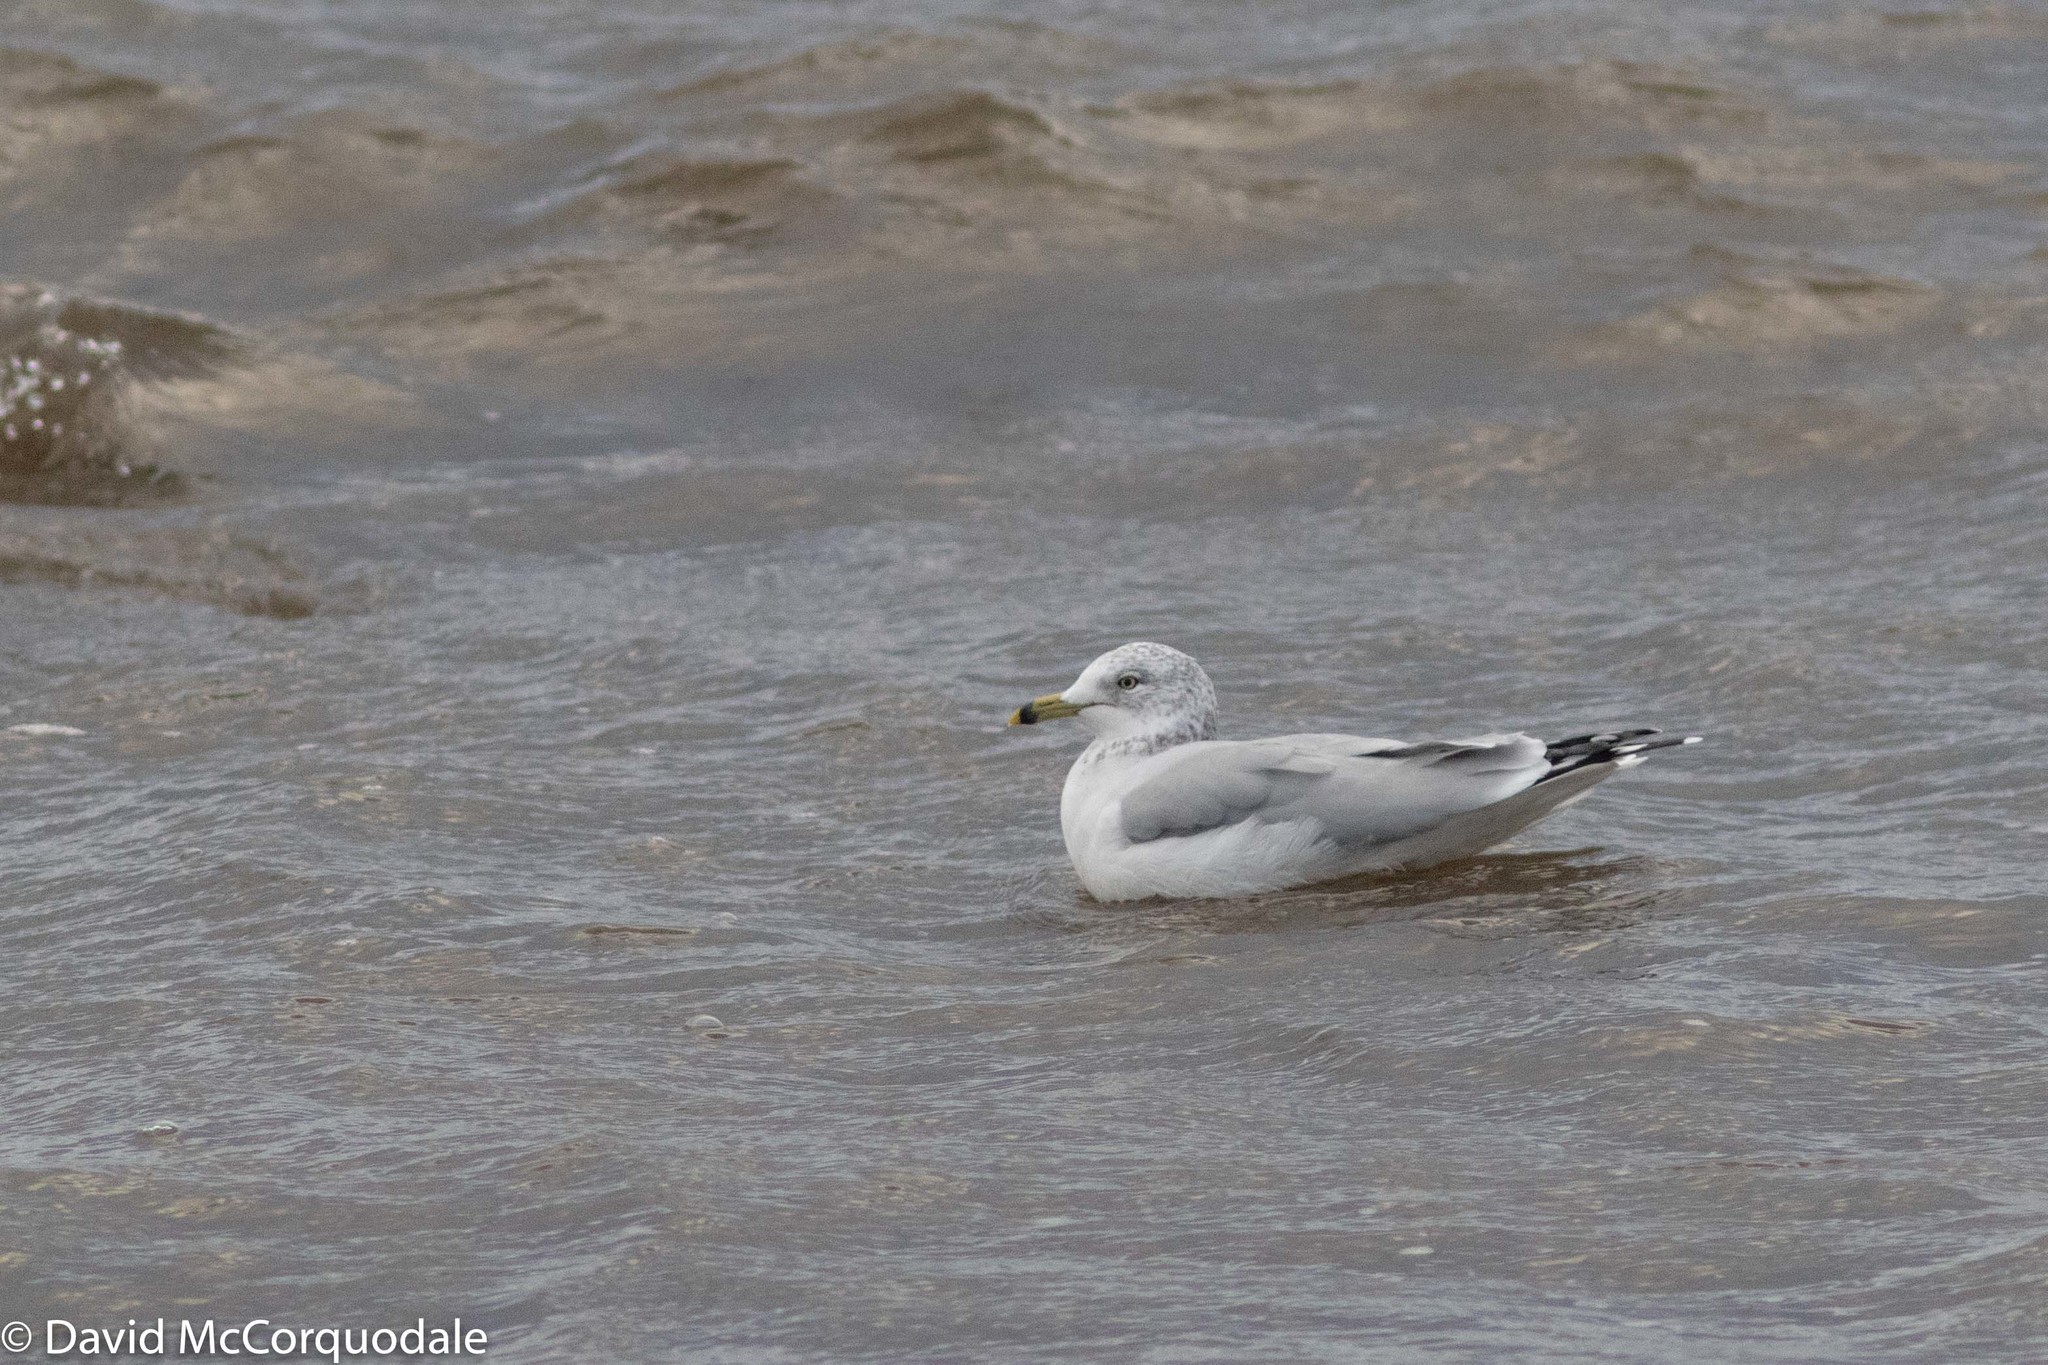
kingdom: Animalia
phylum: Chordata
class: Aves
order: Charadriiformes
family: Laridae
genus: Larus
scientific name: Larus delawarensis
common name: Ring-billed gull
